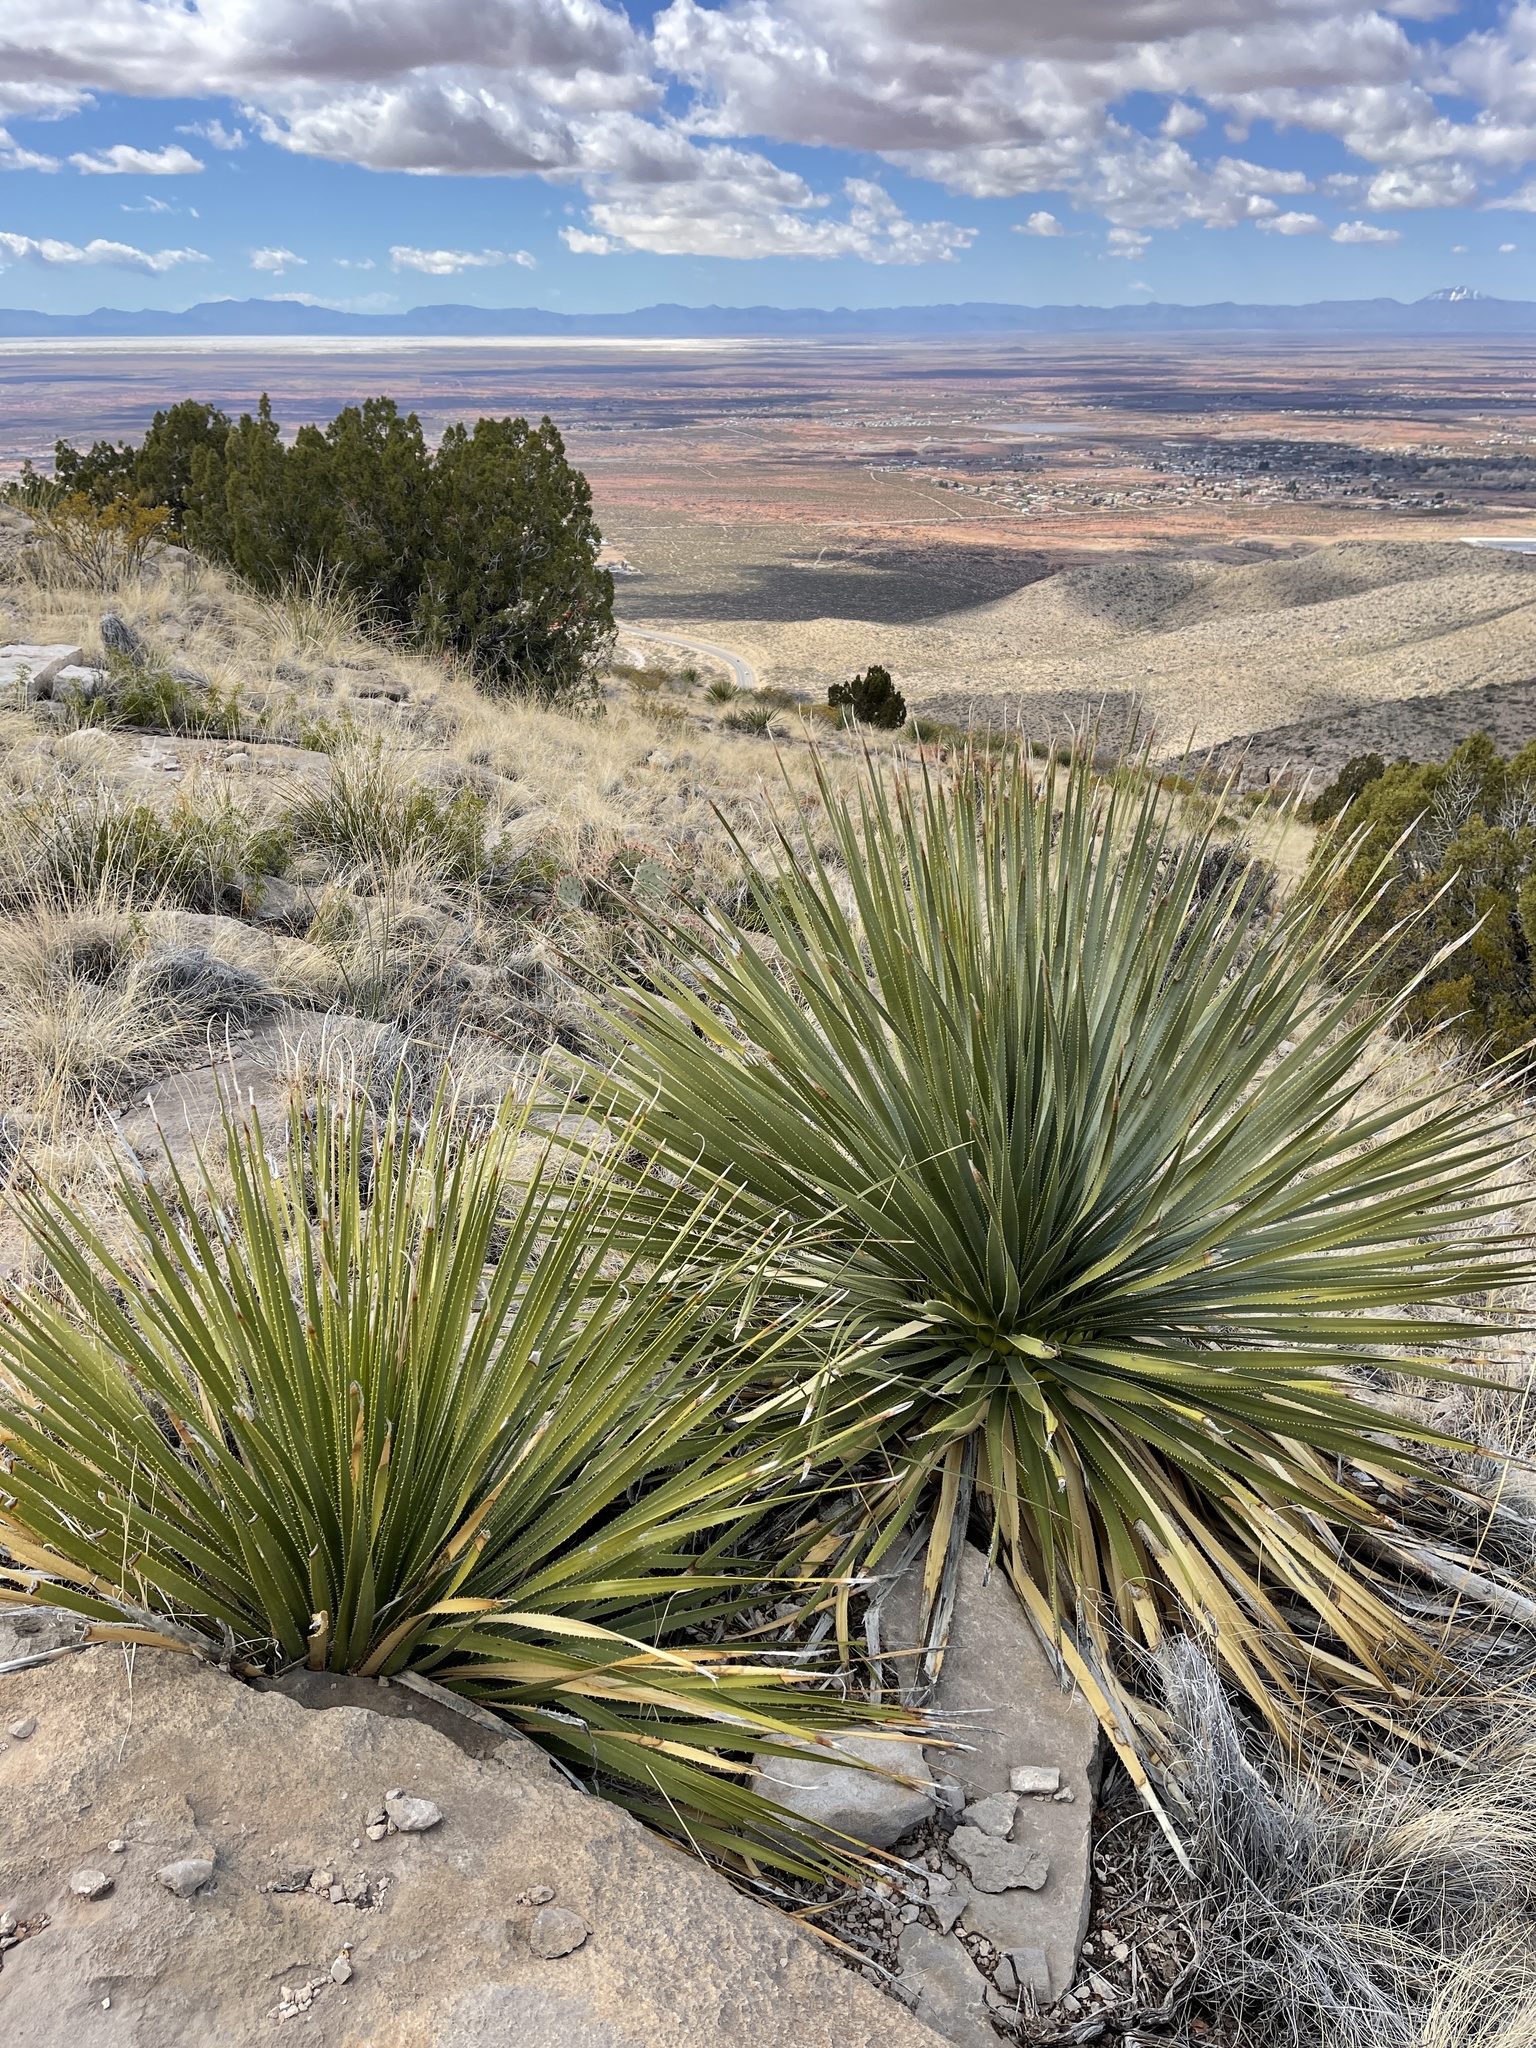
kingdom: Plantae
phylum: Tracheophyta
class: Liliopsida
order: Asparagales
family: Asparagaceae
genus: Dasylirion
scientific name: Dasylirion wheeleri
